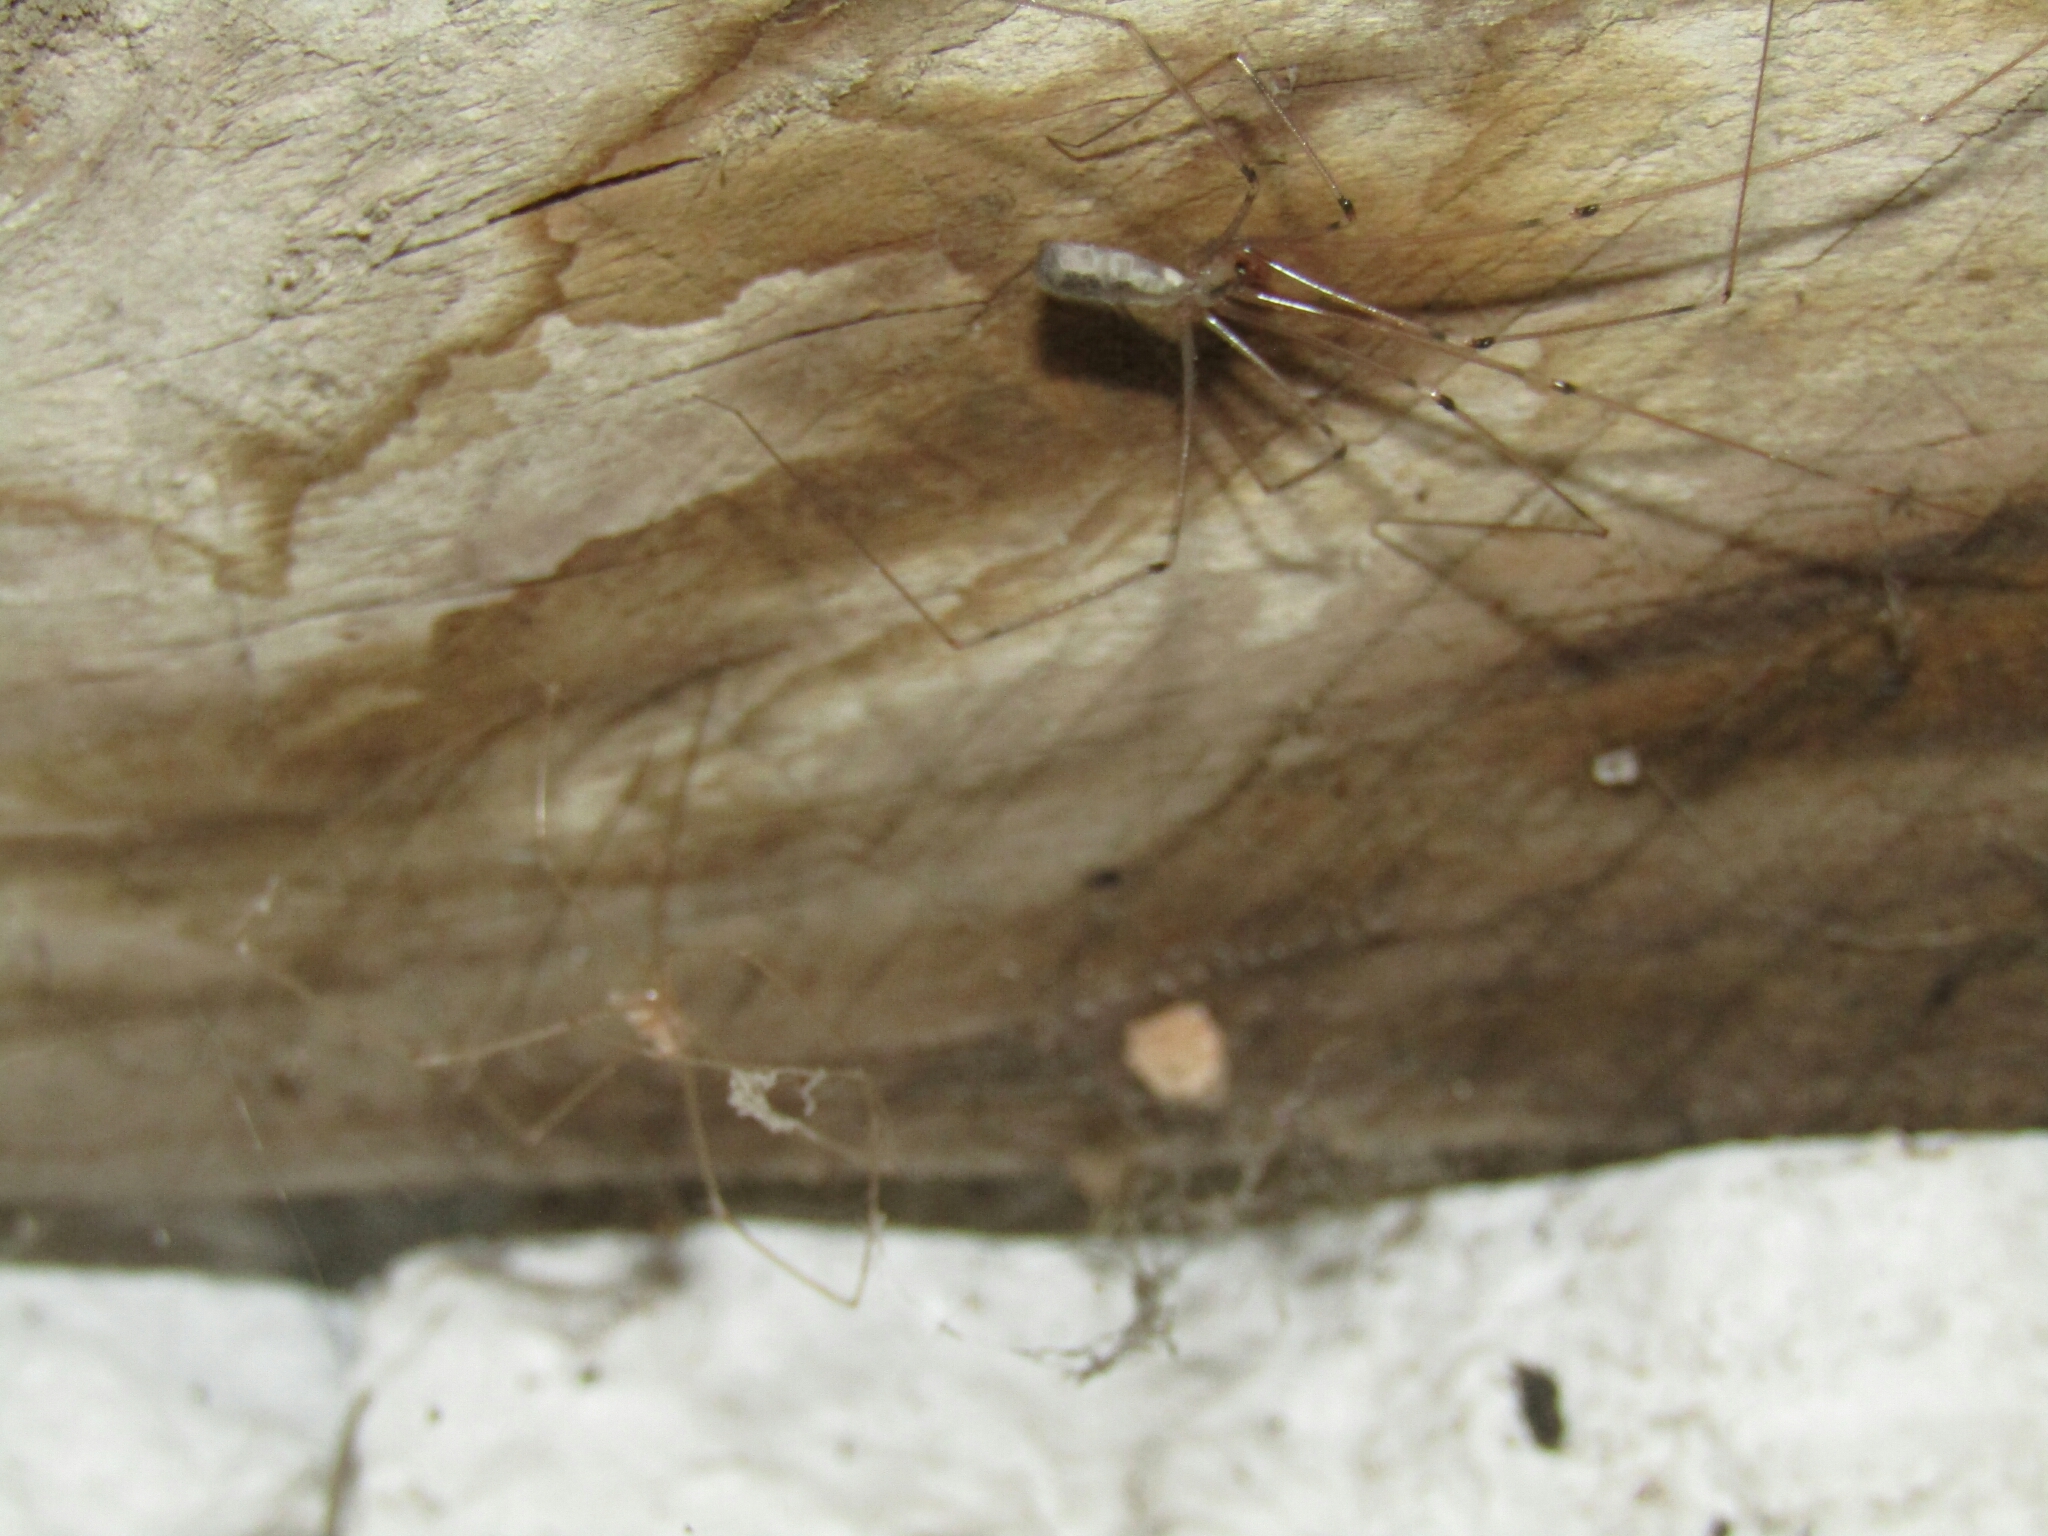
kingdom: Animalia
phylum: Arthropoda
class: Arachnida
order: Araneae
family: Pholcidae
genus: Pholcus
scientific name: Pholcus phalangioides
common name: Longbodied cellar spider
